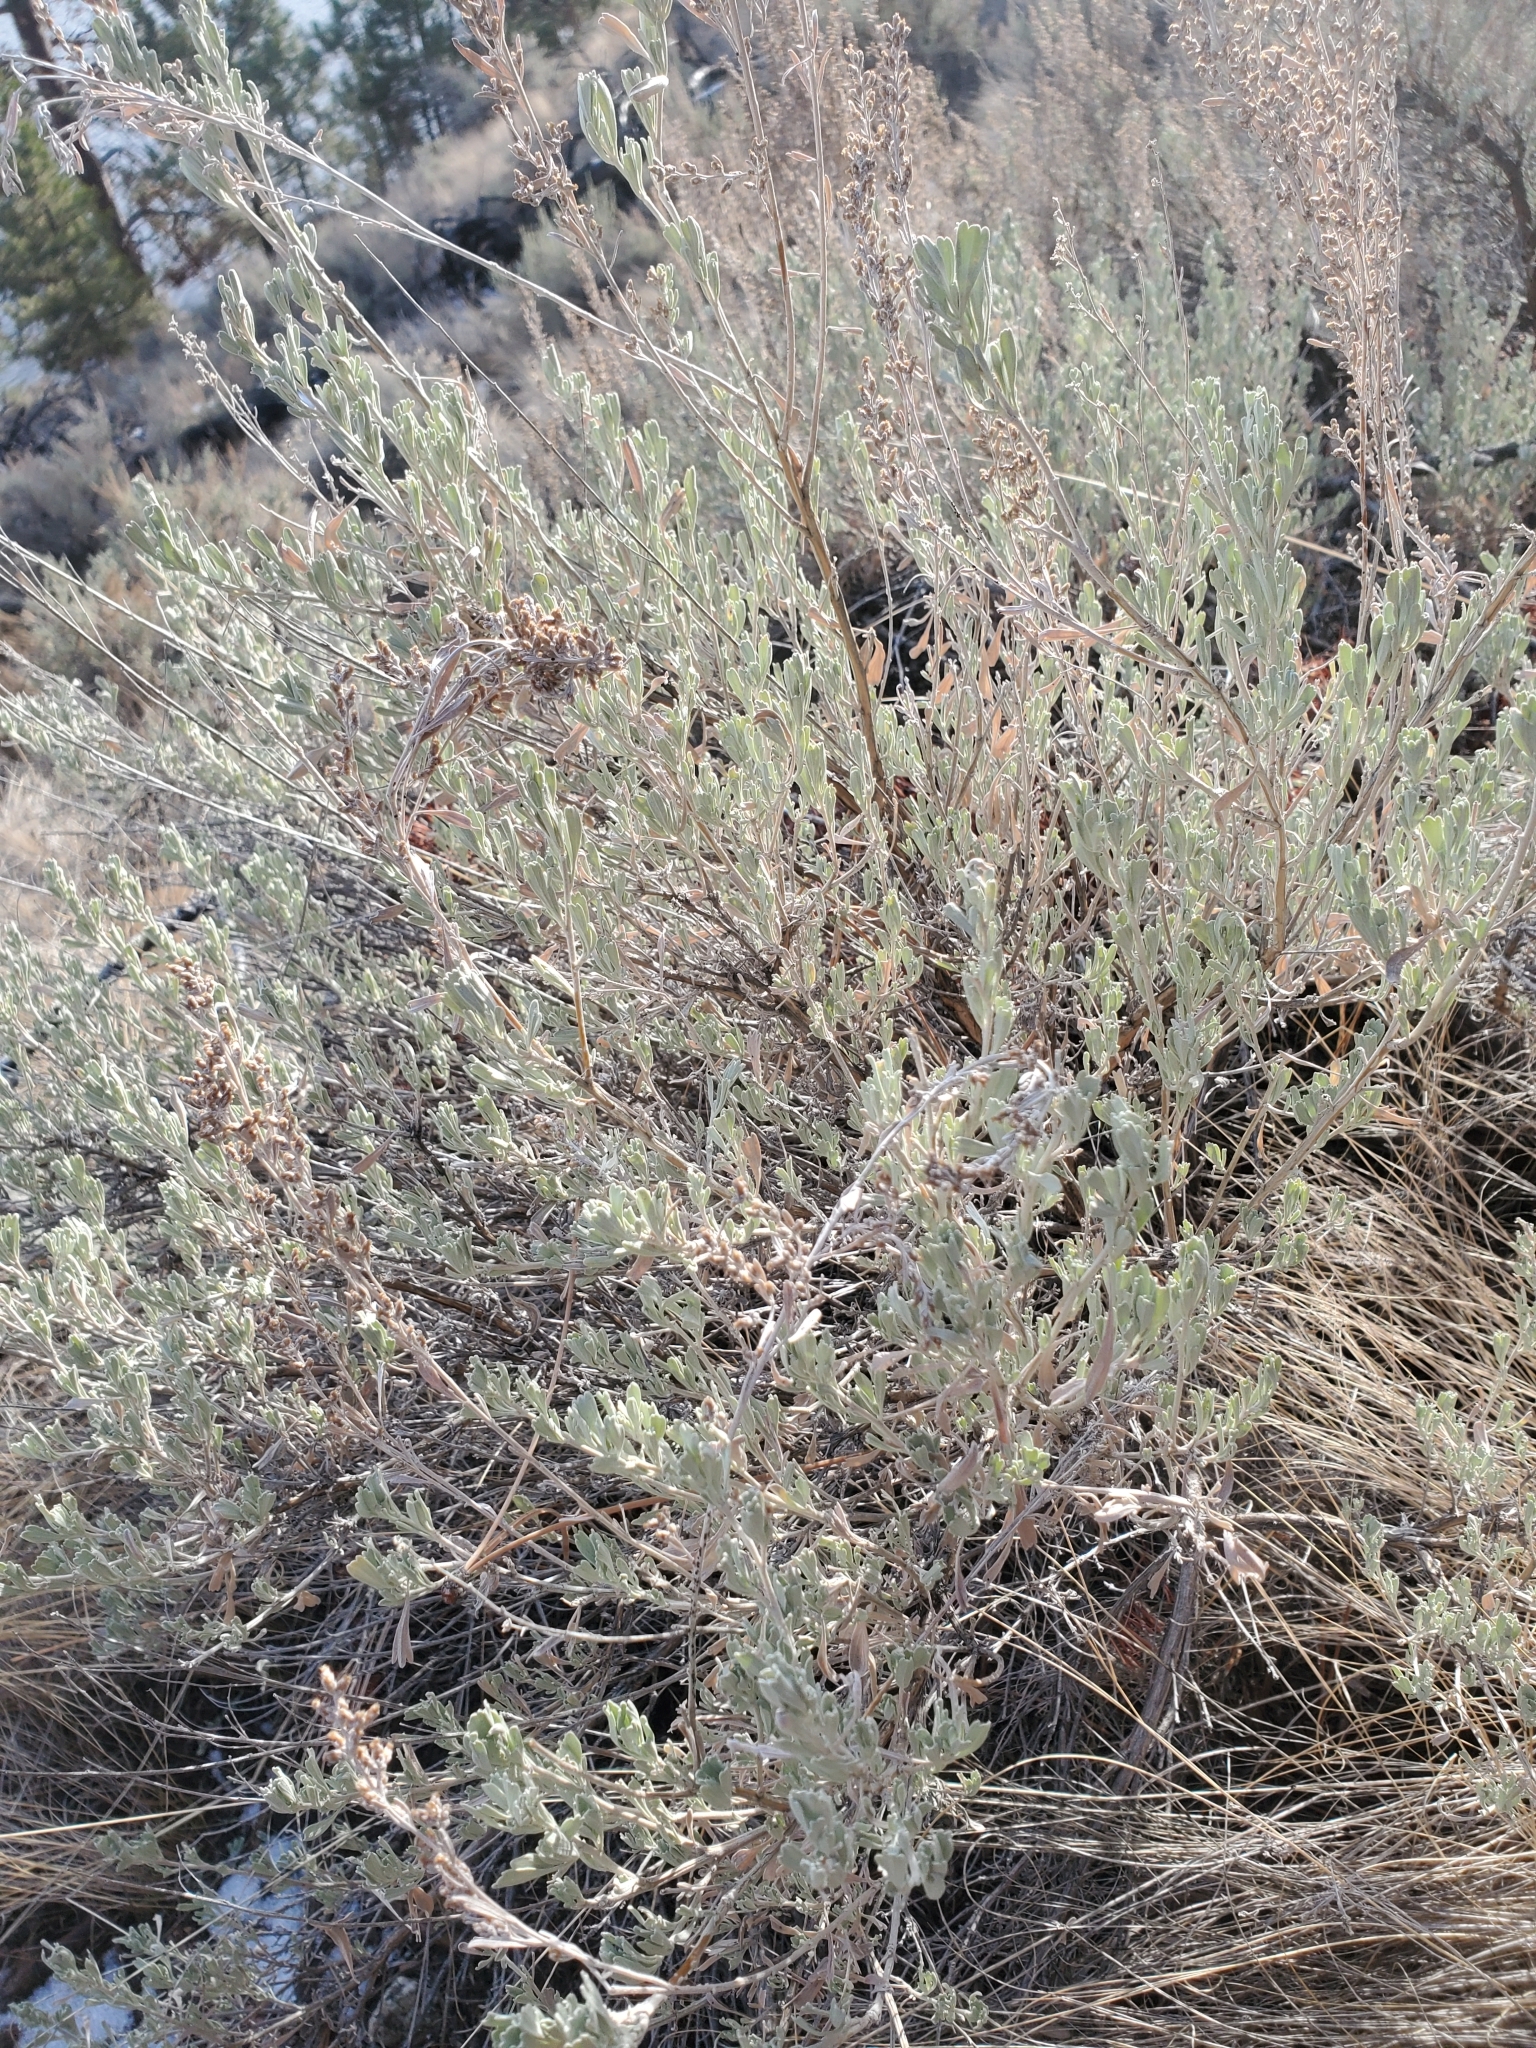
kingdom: Plantae
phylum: Tracheophyta
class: Magnoliopsida
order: Asterales
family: Asteraceae
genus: Artemisia
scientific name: Artemisia tridentata
